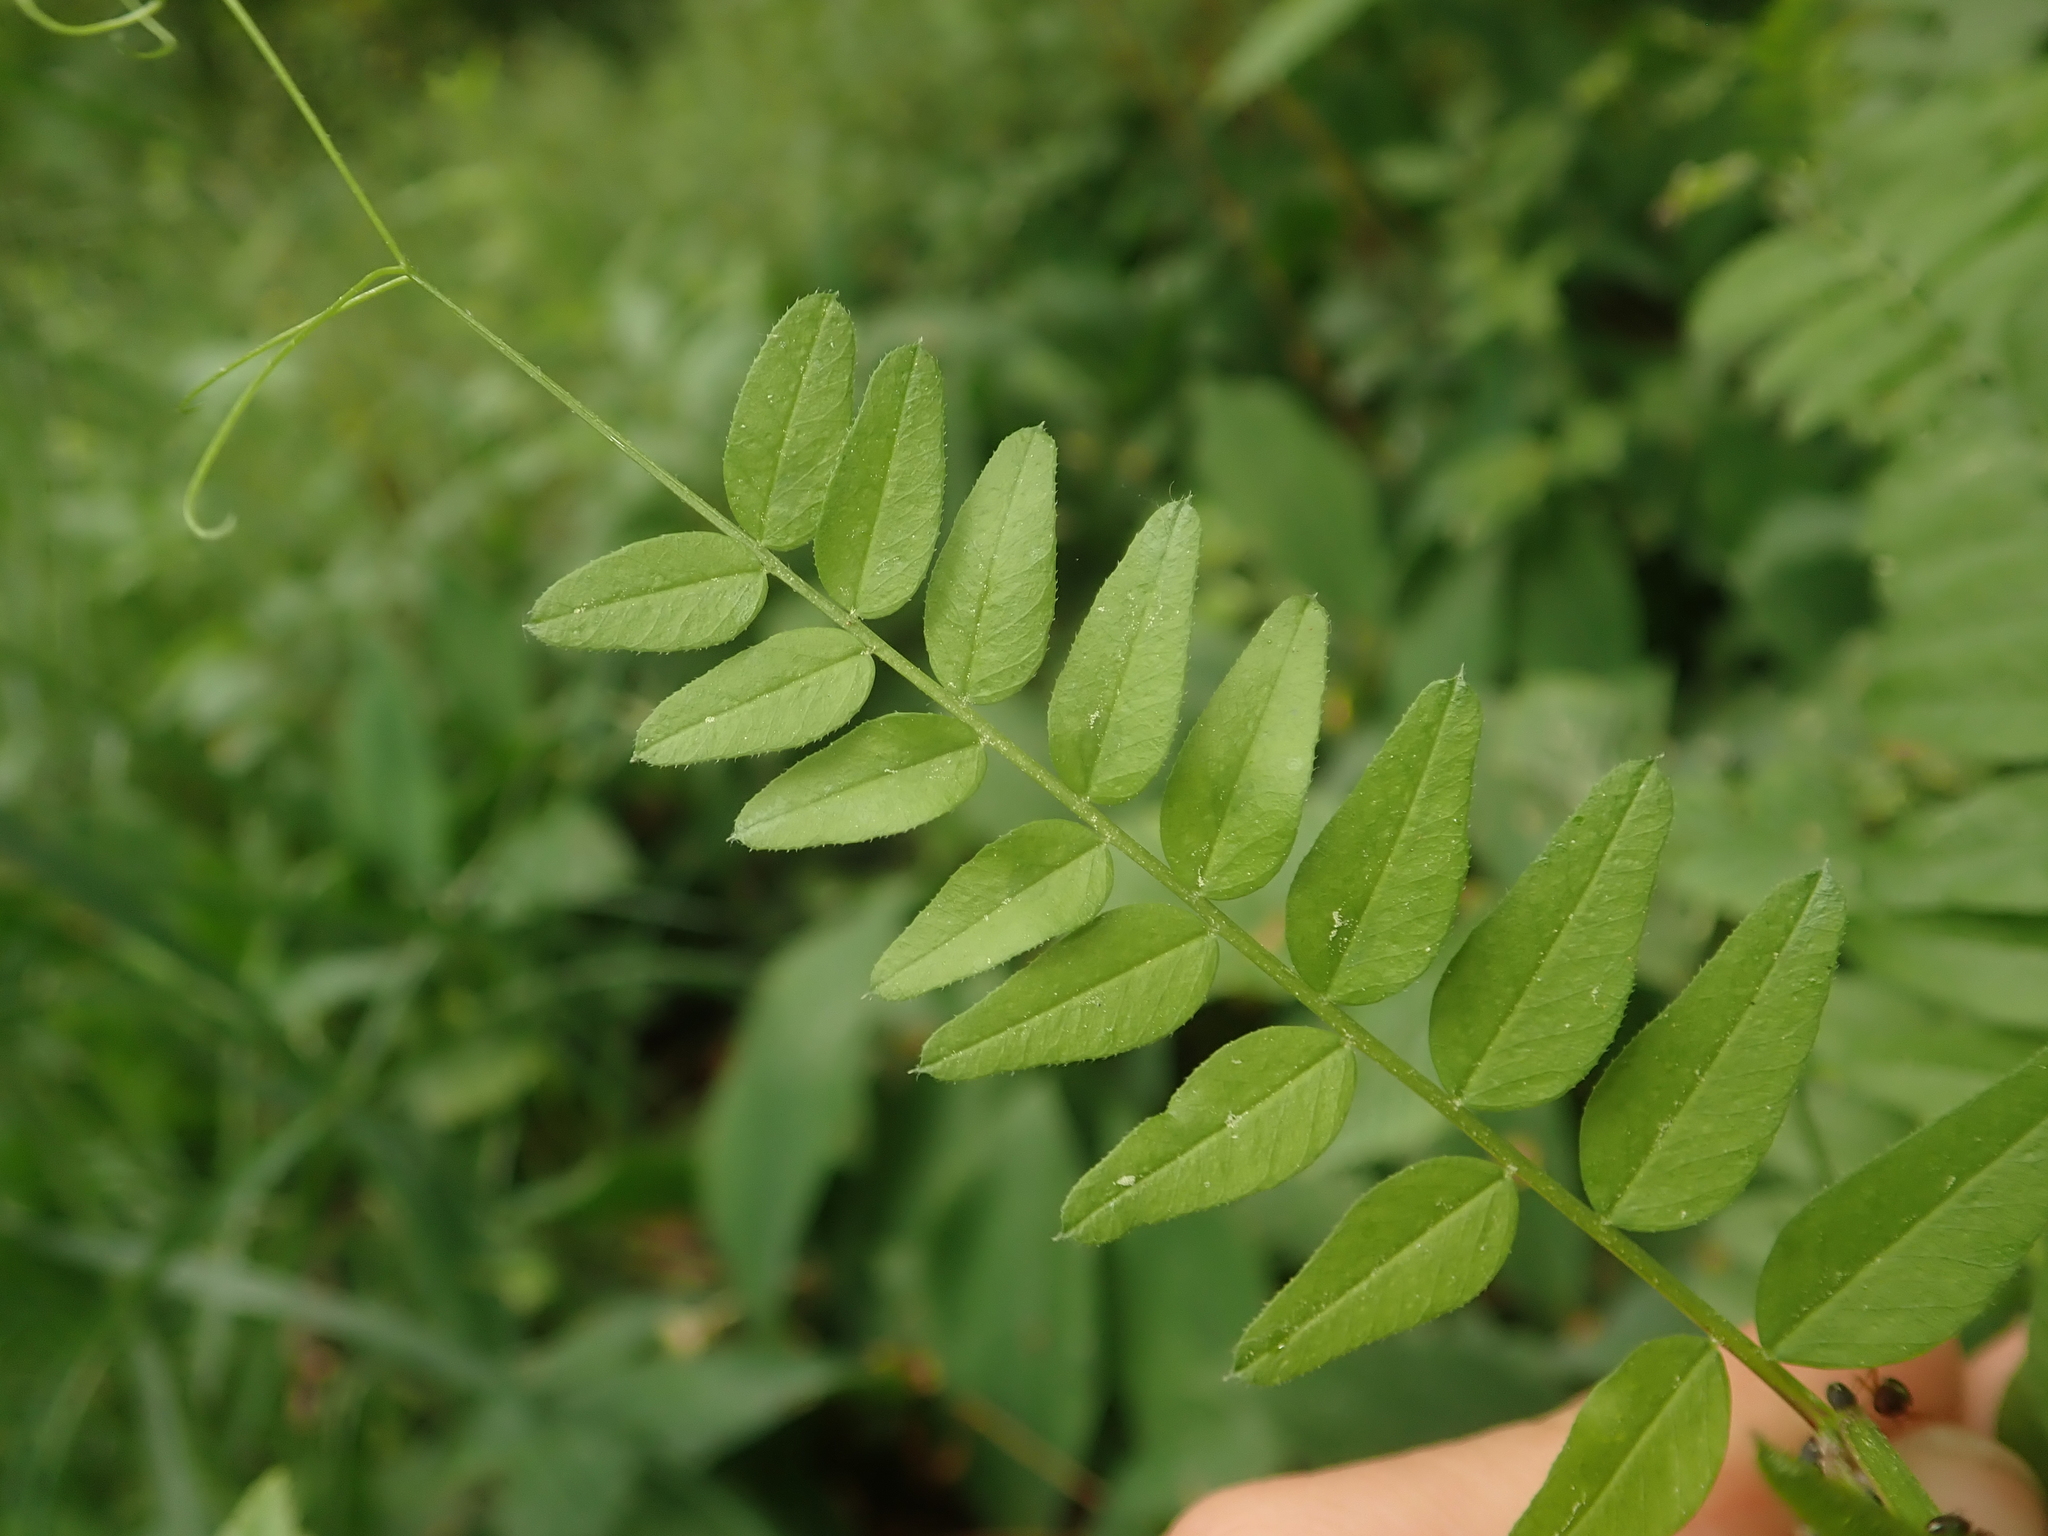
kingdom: Plantae
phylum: Tracheophyta
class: Magnoliopsida
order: Fabales
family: Fabaceae
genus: Vicia
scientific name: Vicia sepium
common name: Bush vetch
